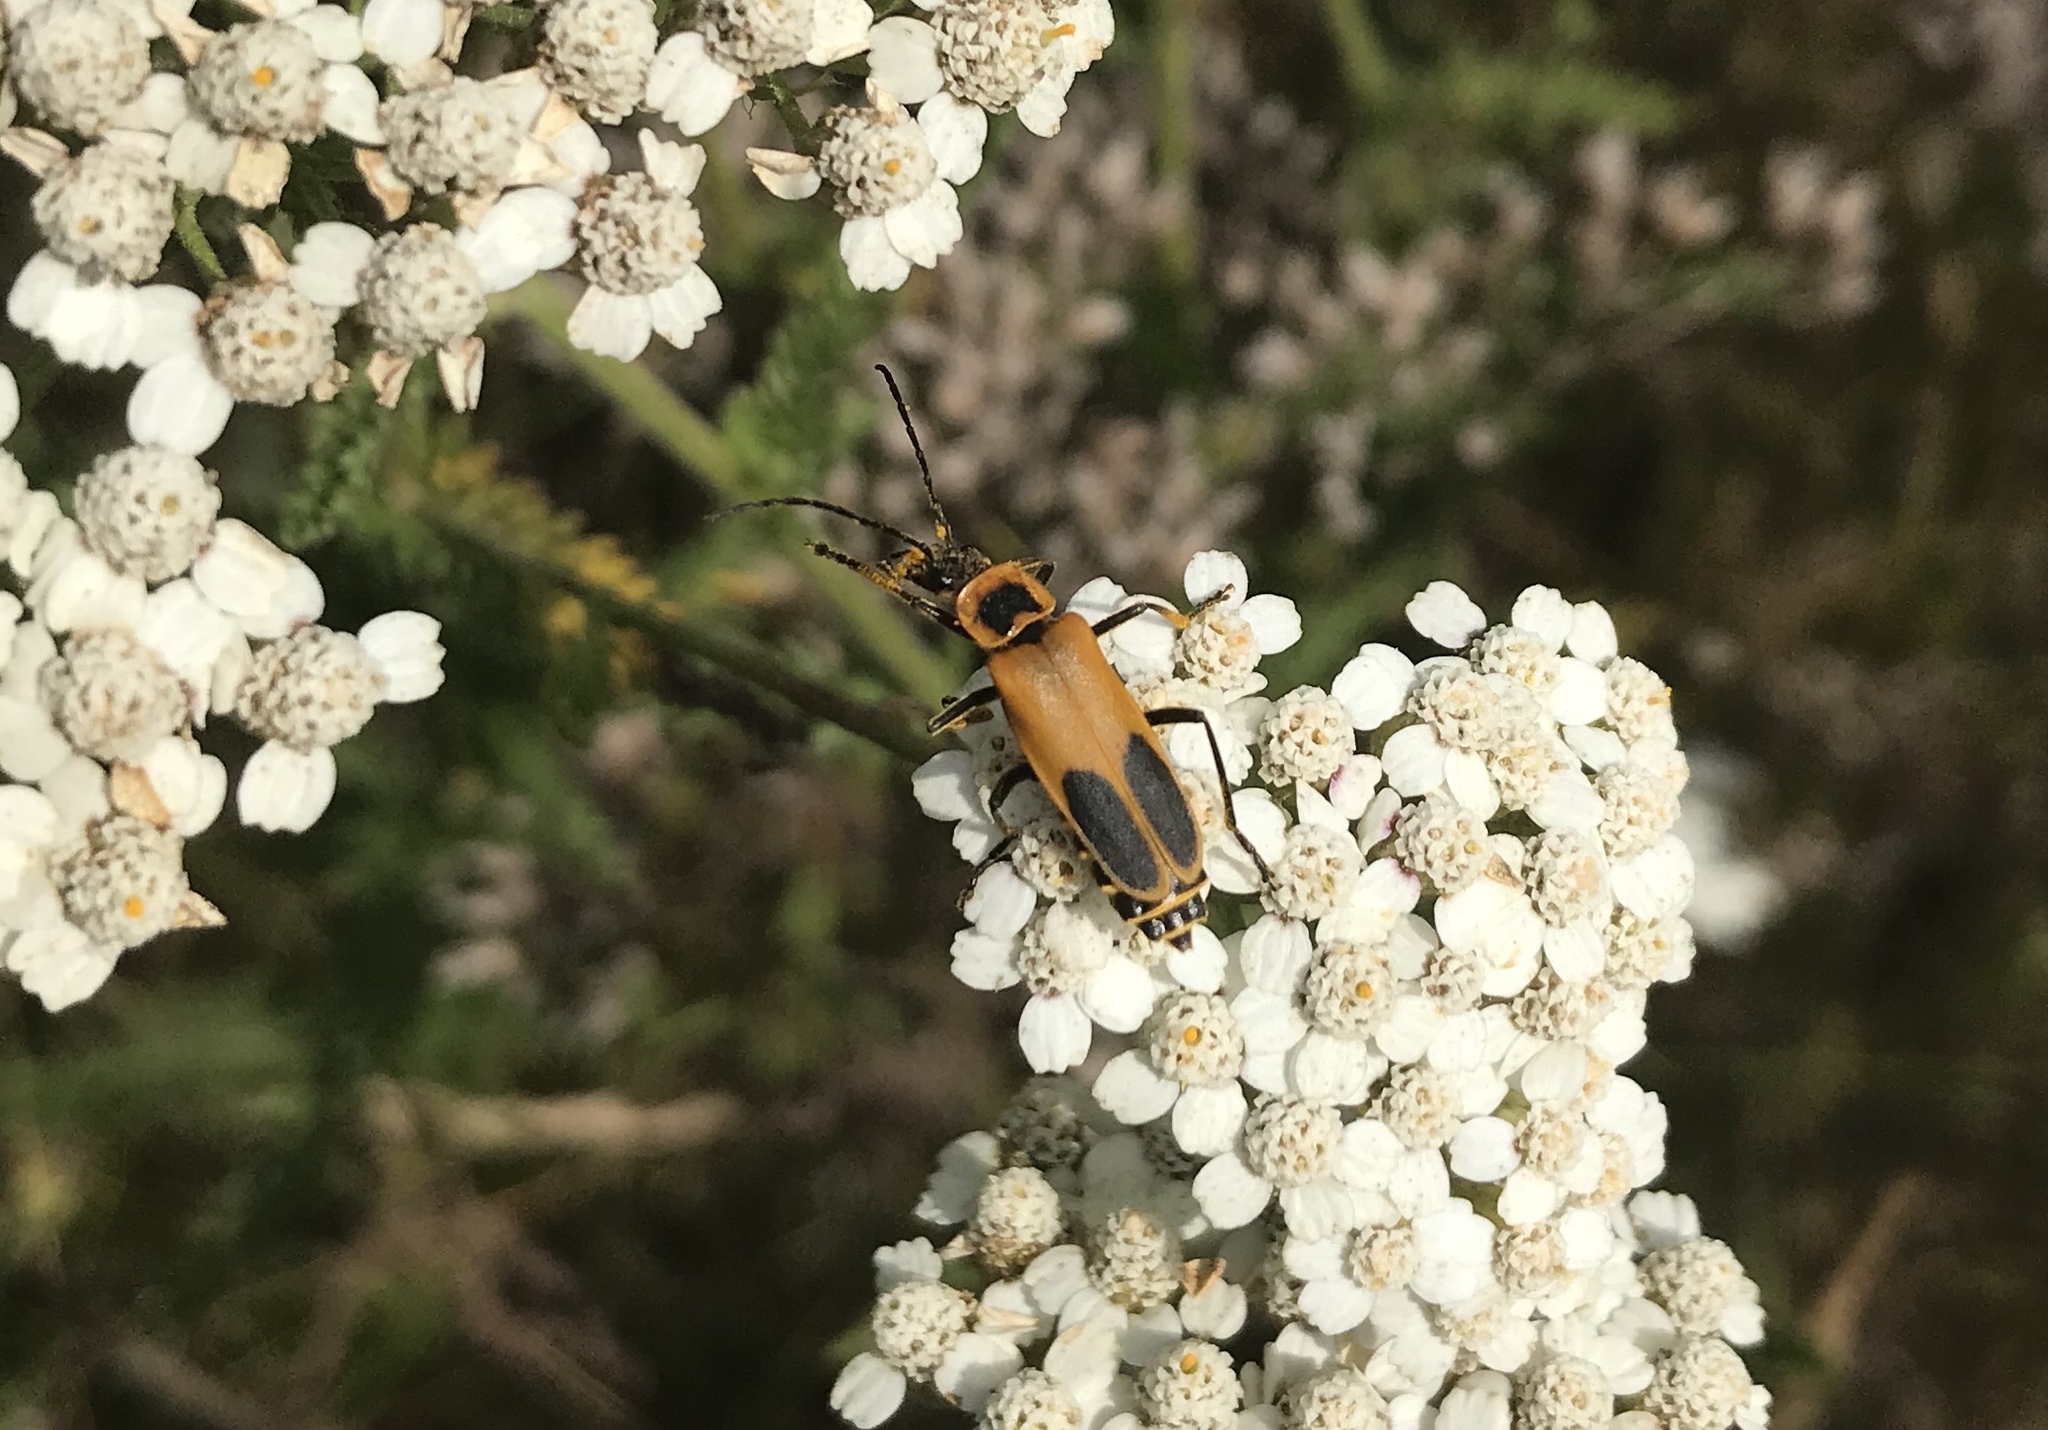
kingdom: Animalia
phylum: Arthropoda
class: Insecta
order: Coleoptera
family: Cantharidae
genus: Chauliognathus
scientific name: Chauliognathus pensylvanicus
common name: Goldenrod soldier beetle
